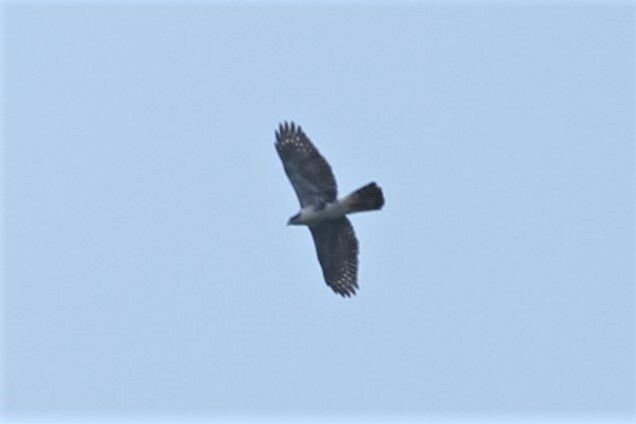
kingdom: Animalia
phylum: Chordata
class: Aves
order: Accipitriformes
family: Accipitridae
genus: Accipiter
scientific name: Accipiter melanoleucus
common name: Black sparrowhawk
